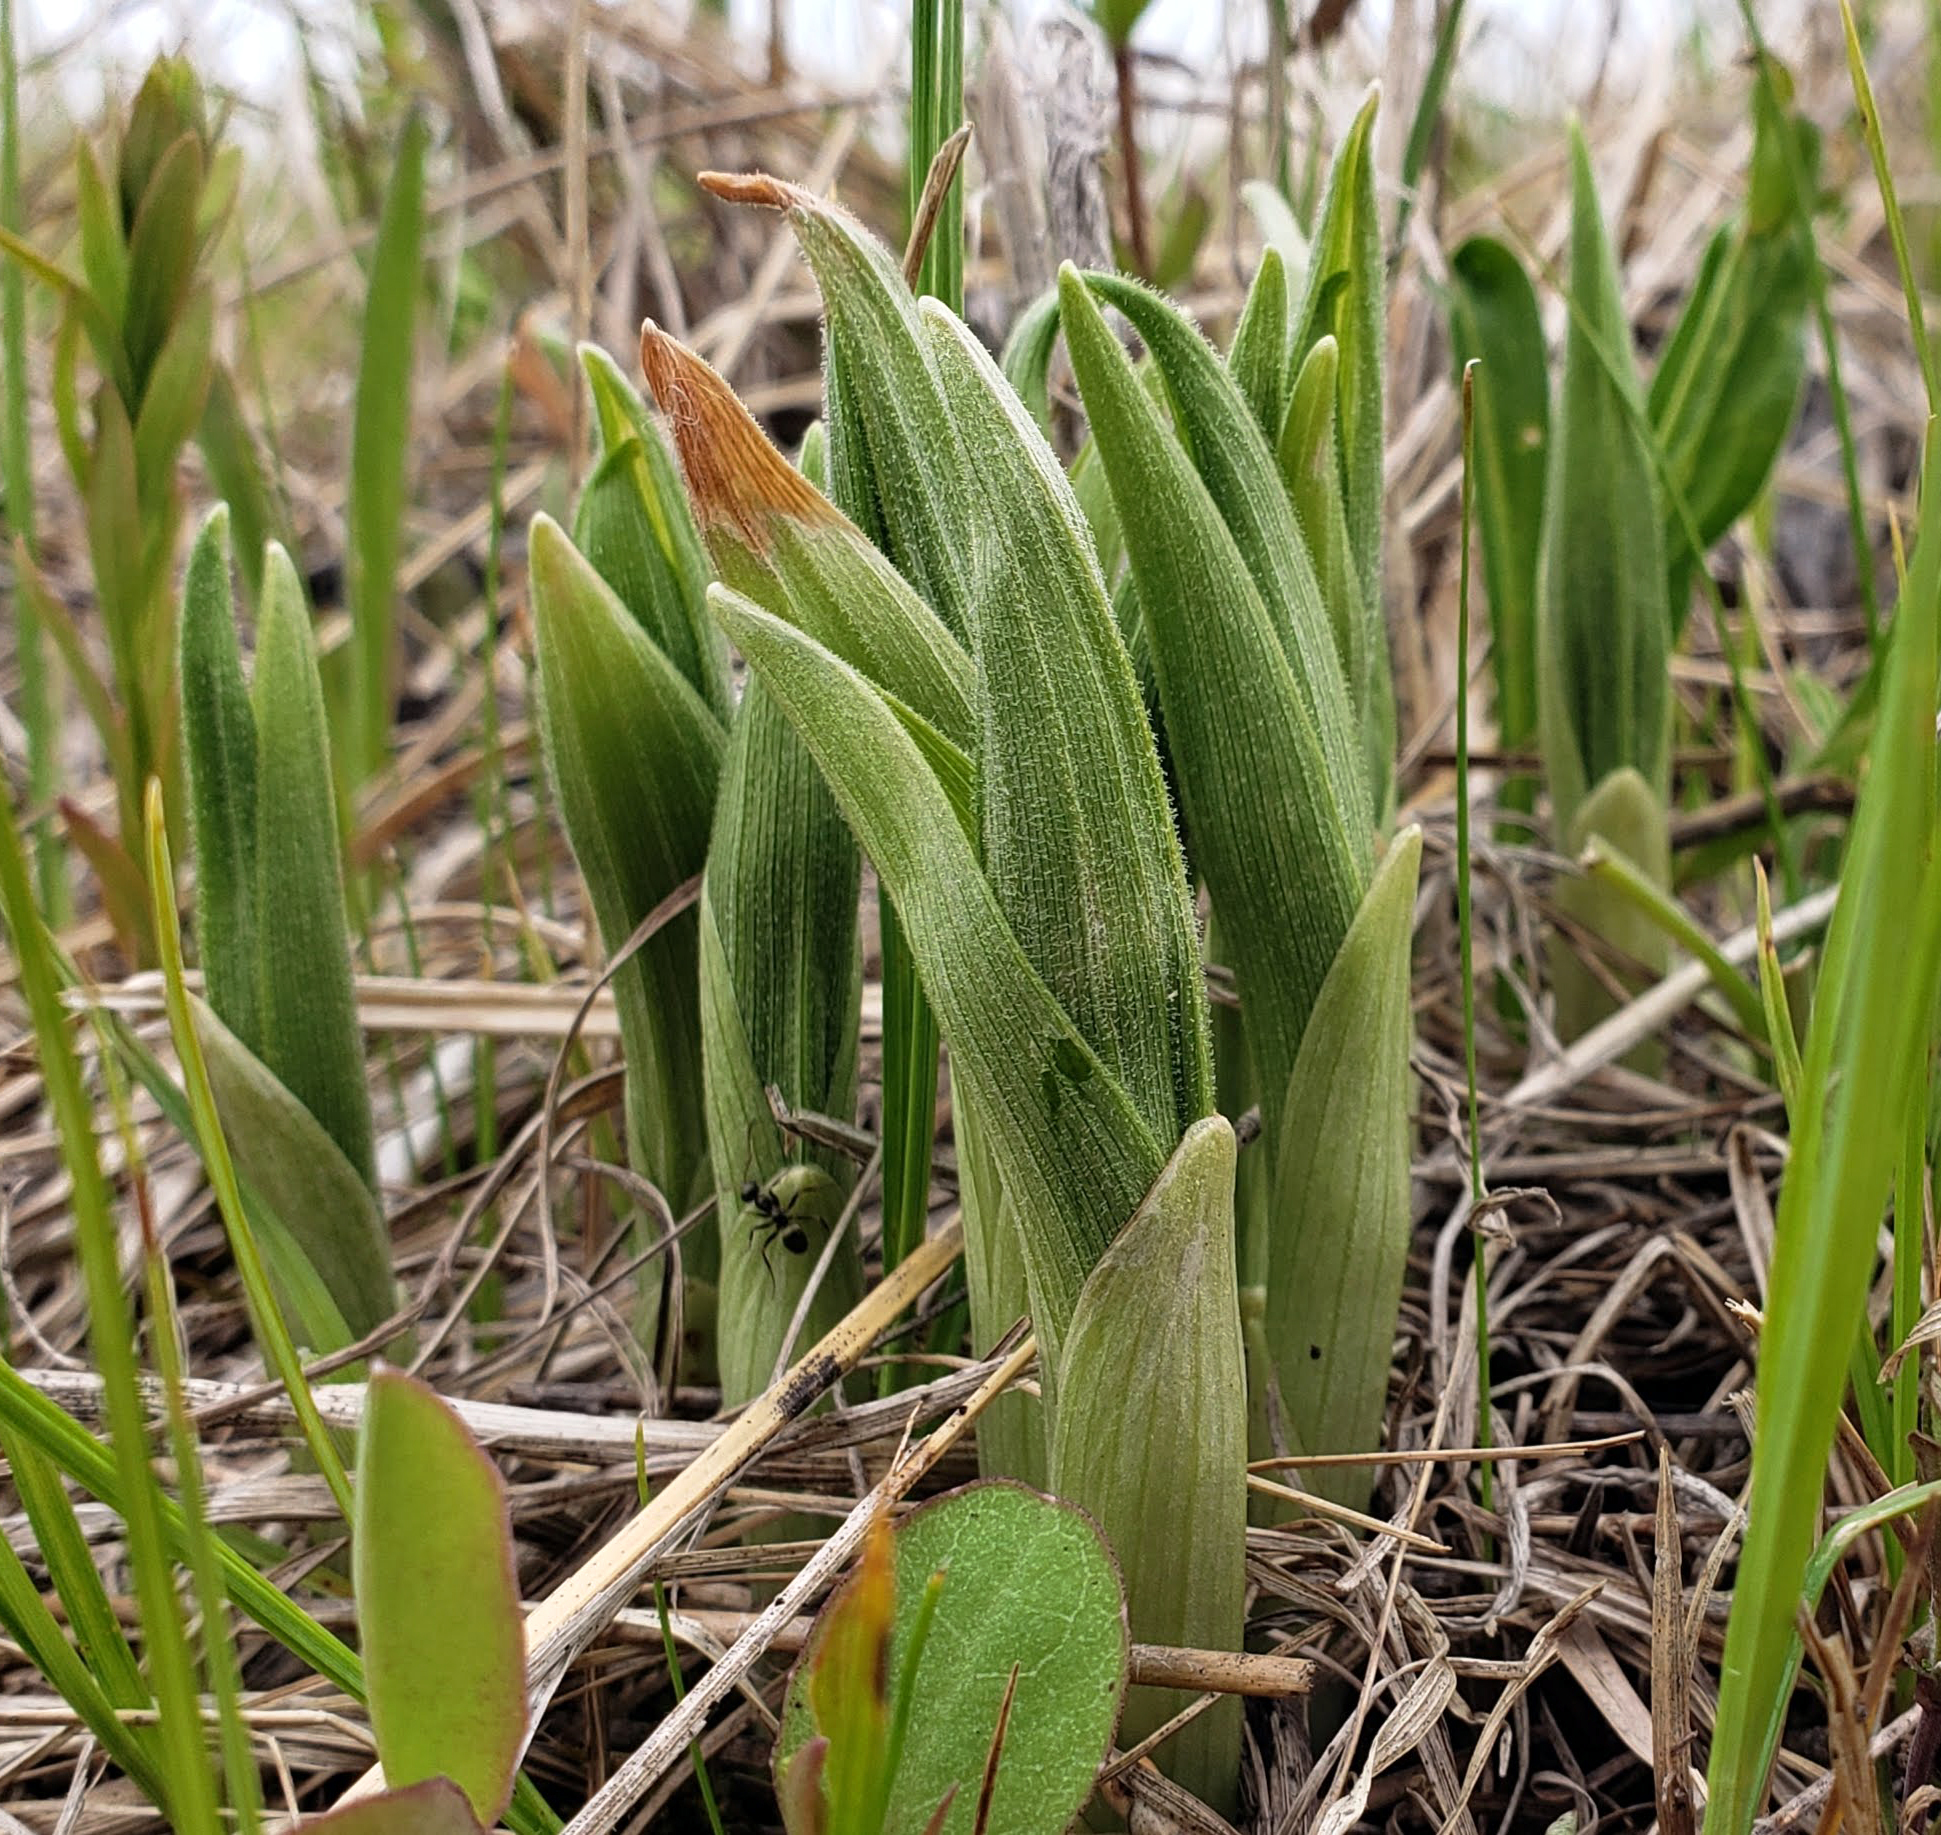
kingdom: Plantae
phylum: Tracheophyta
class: Liliopsida
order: Asparagales
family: Orchidaceae
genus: Cypripedium
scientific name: Cypripedium candidum
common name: White lady's-slipper
